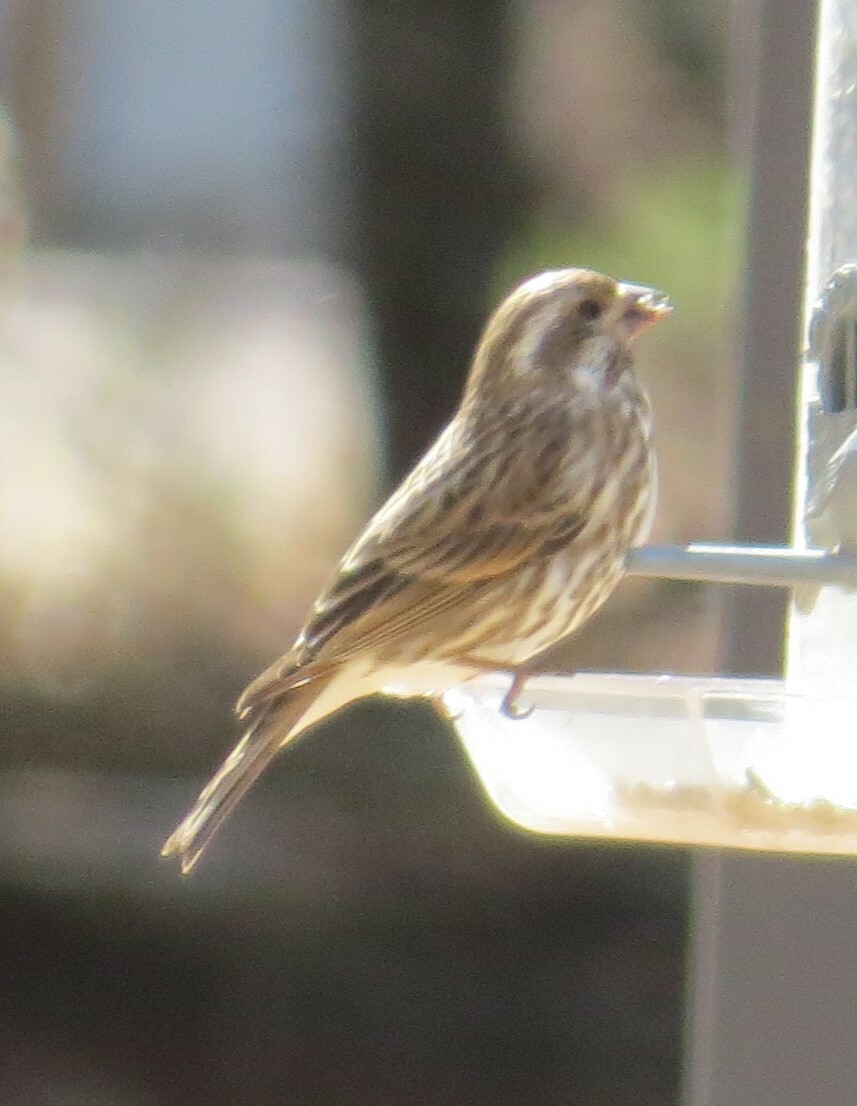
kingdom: Animalia
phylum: Chordata
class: Aves
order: Passeriformes
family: Fringillidae
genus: Haemorhous
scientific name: Haemorhous purpureus
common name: Purple finch
